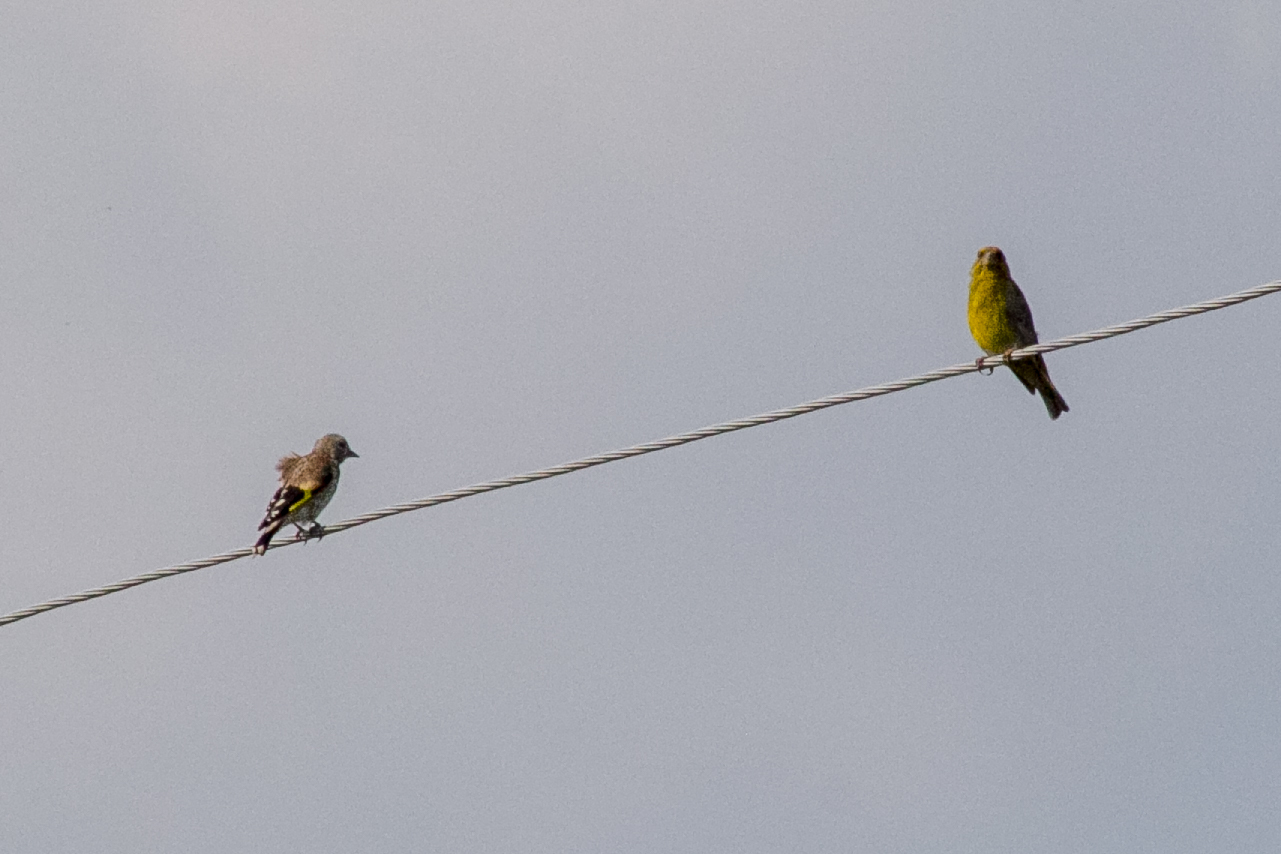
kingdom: Plantae
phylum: Tracheophyta
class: Liliopsida
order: Poales
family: Poaceae
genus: Chloris
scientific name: Chloris chloris
